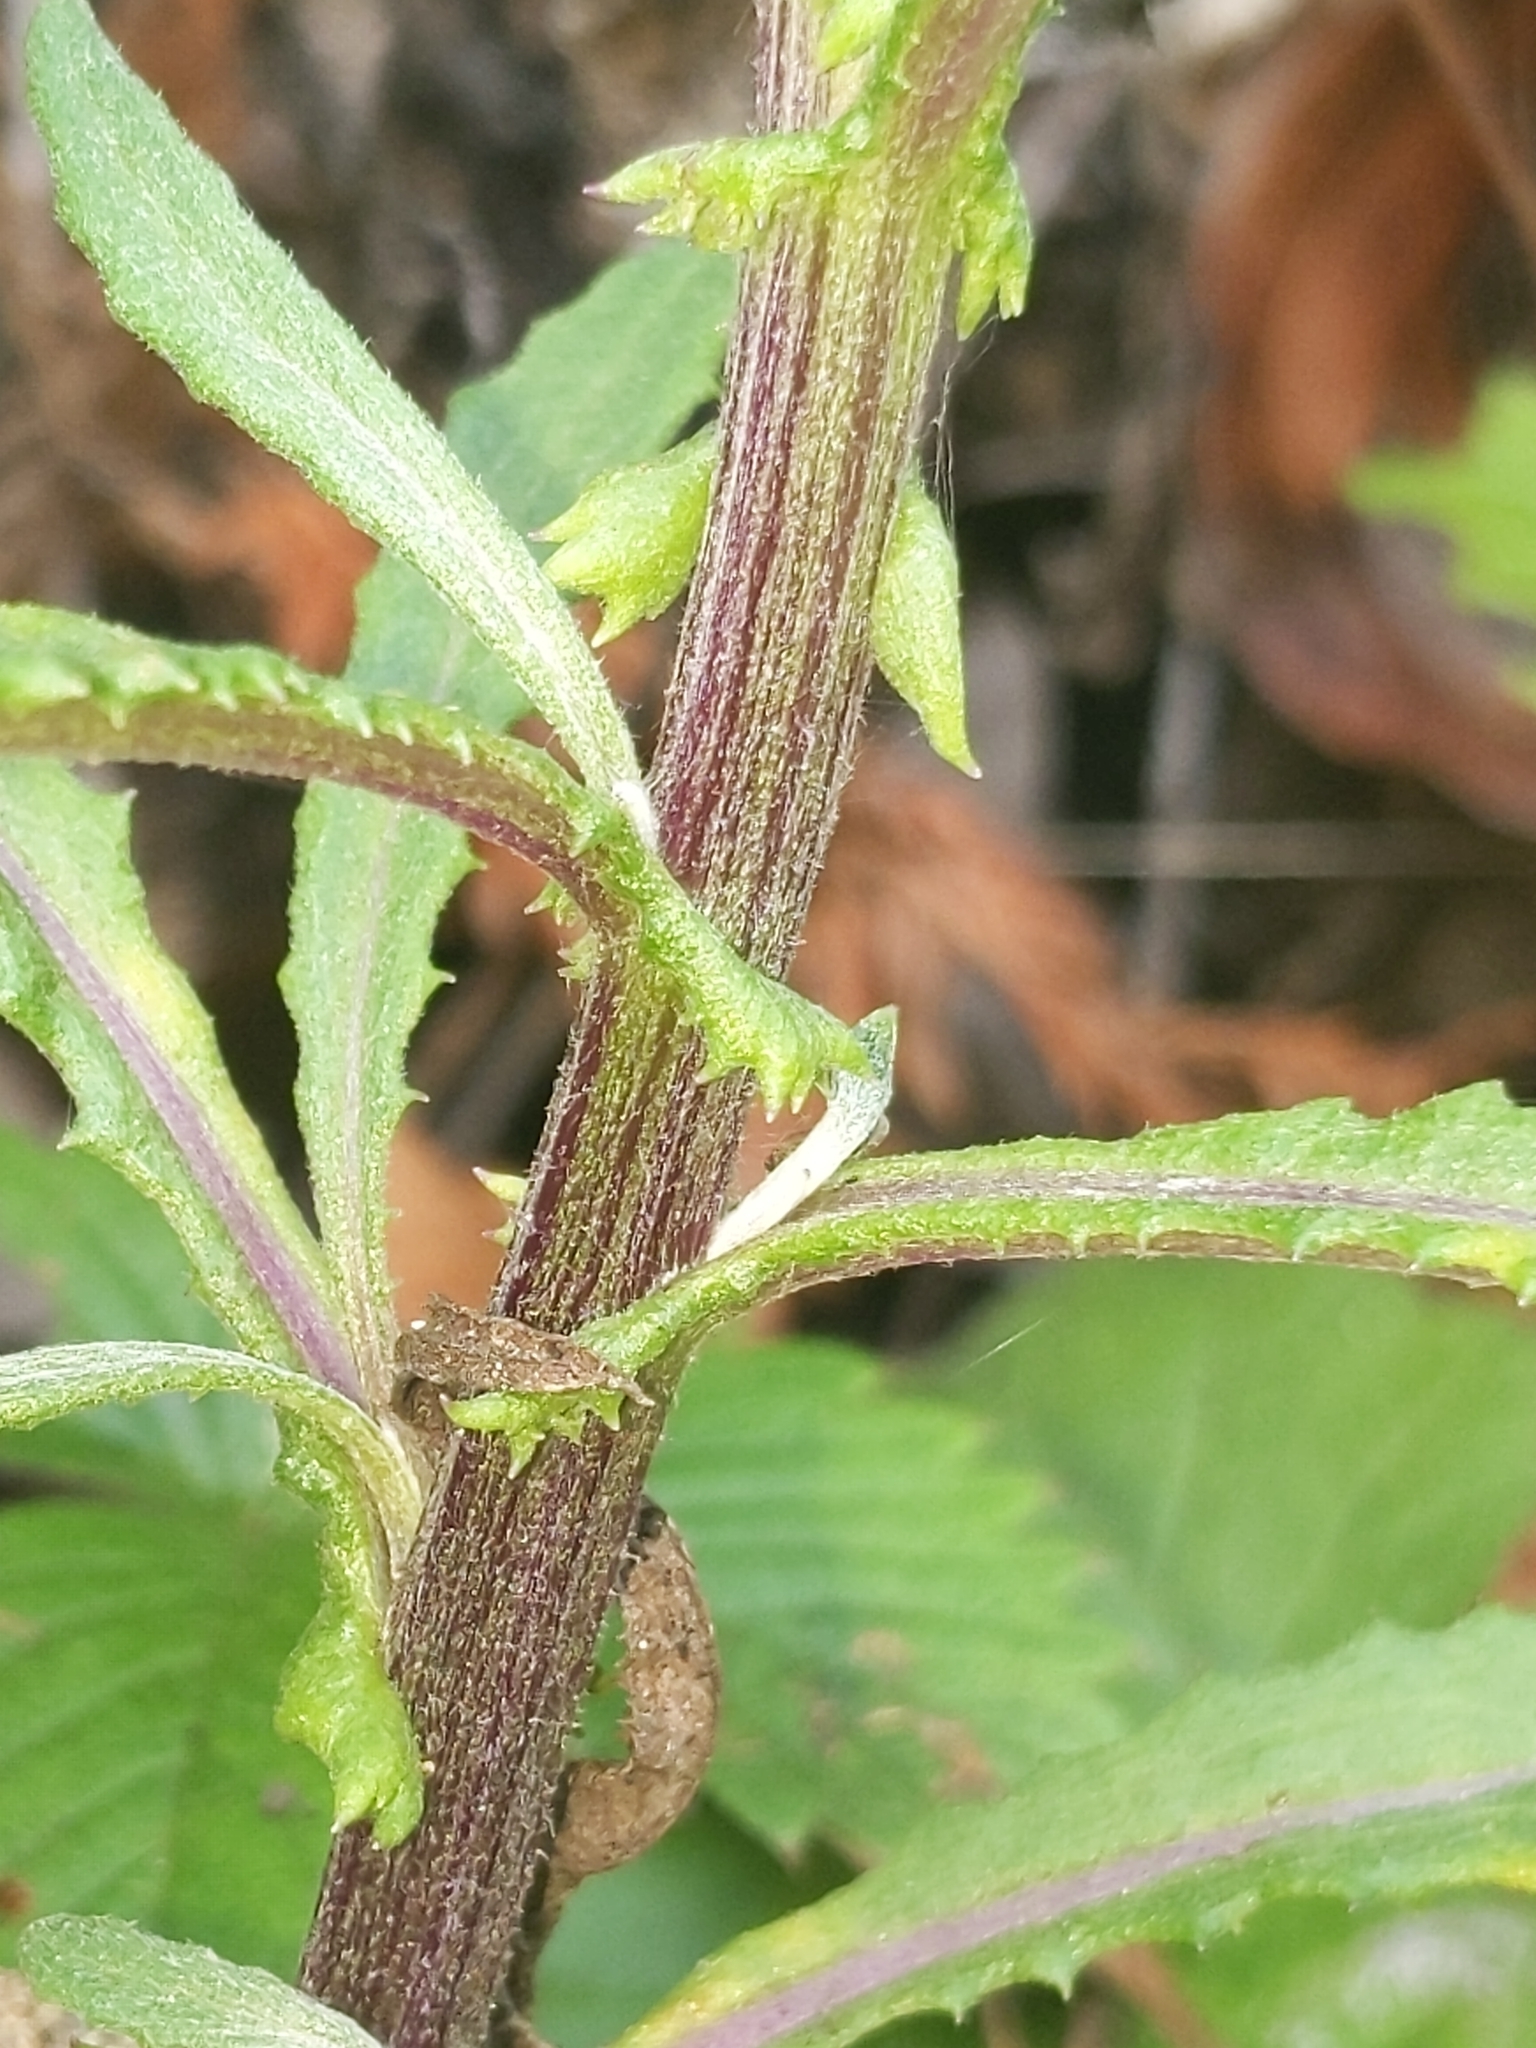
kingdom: Plantae
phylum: Tracheophyta
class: Magnoliopsida
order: Asterales
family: Asteraceae
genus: Senecio
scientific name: Senecio minimus
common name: Toothed fireweed
